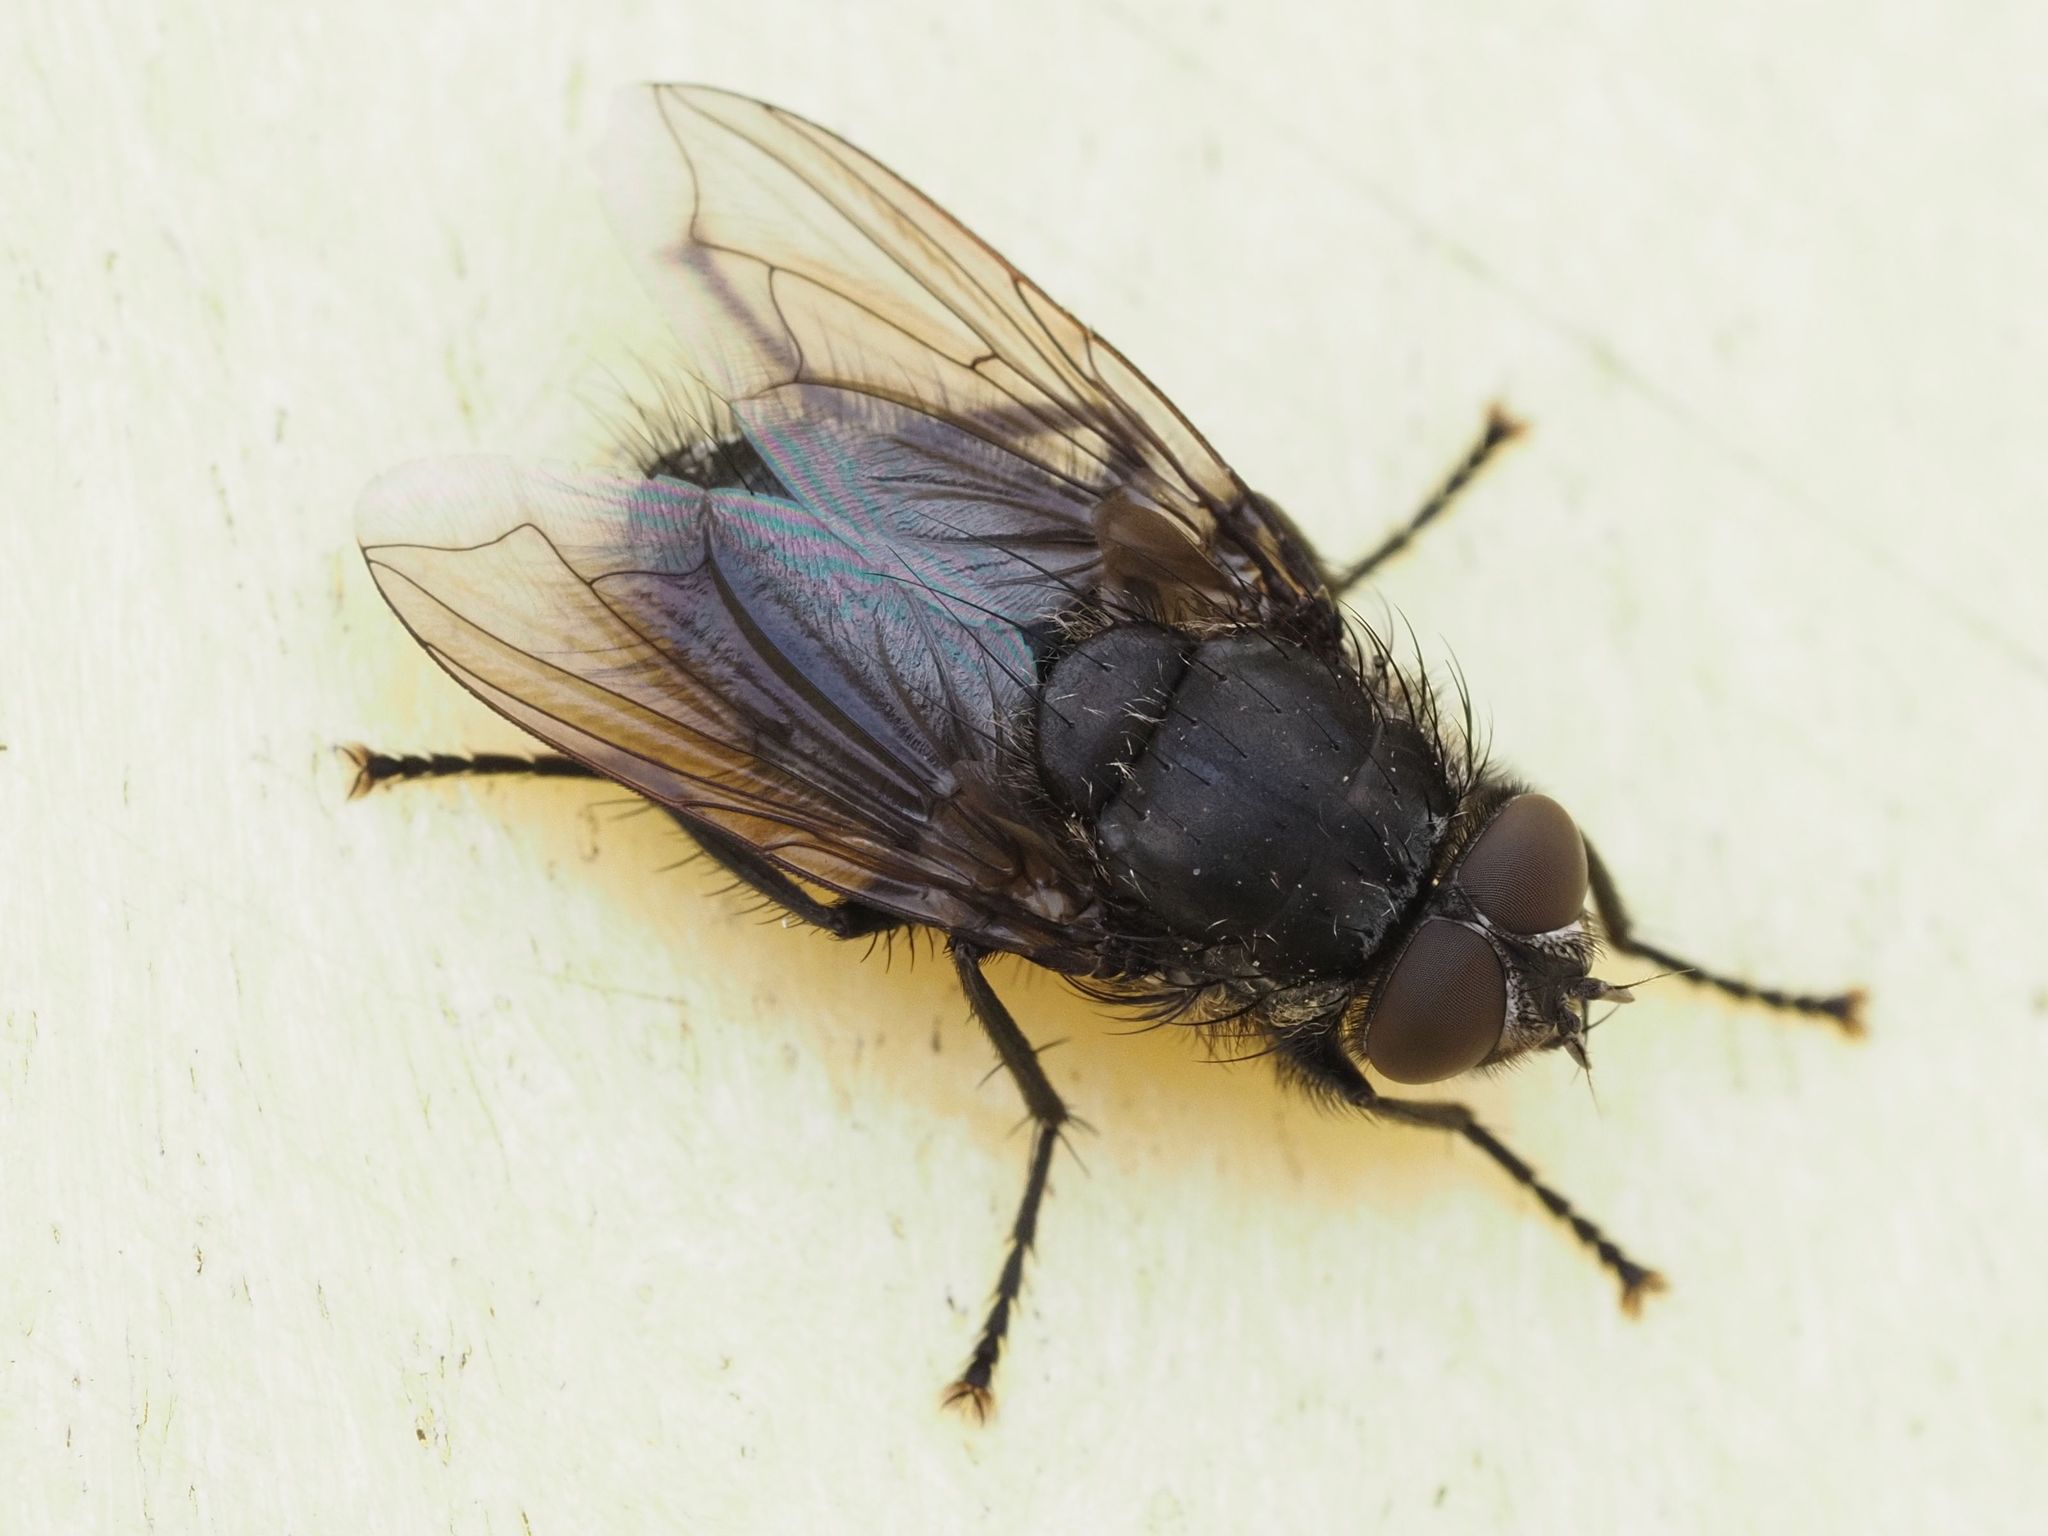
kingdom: Animalia
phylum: Arthropoda
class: Insecta
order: Diptera
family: Polleniidae
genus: Pollenia
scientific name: Pollenia vagabunda
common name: Vagabund cluster fly
